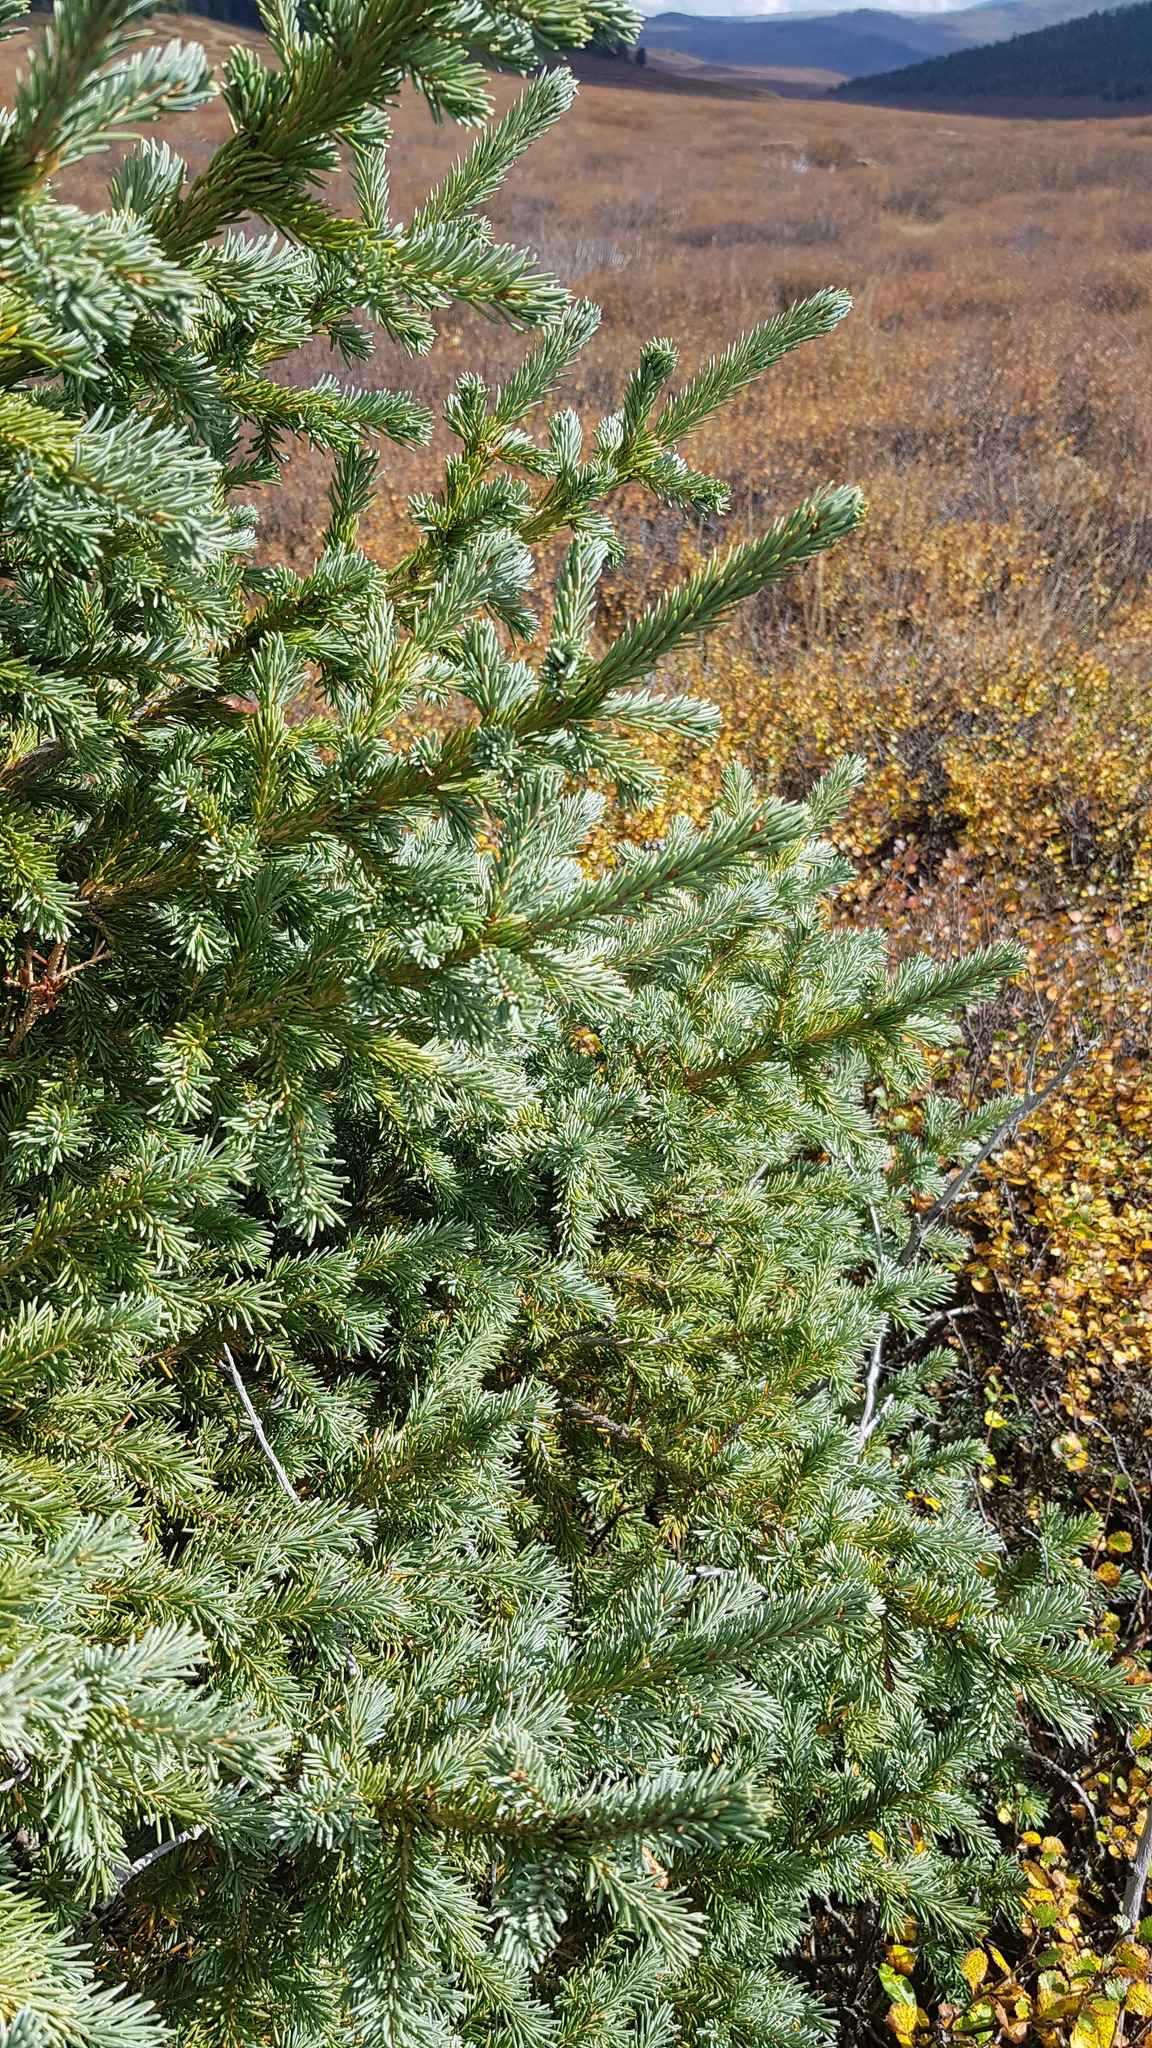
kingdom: Plantae
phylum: Tracheophyta
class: Pinopsida
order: Pinales
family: Pinaceae
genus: Picea
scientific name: Picea obovata
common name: Siberian spruce
